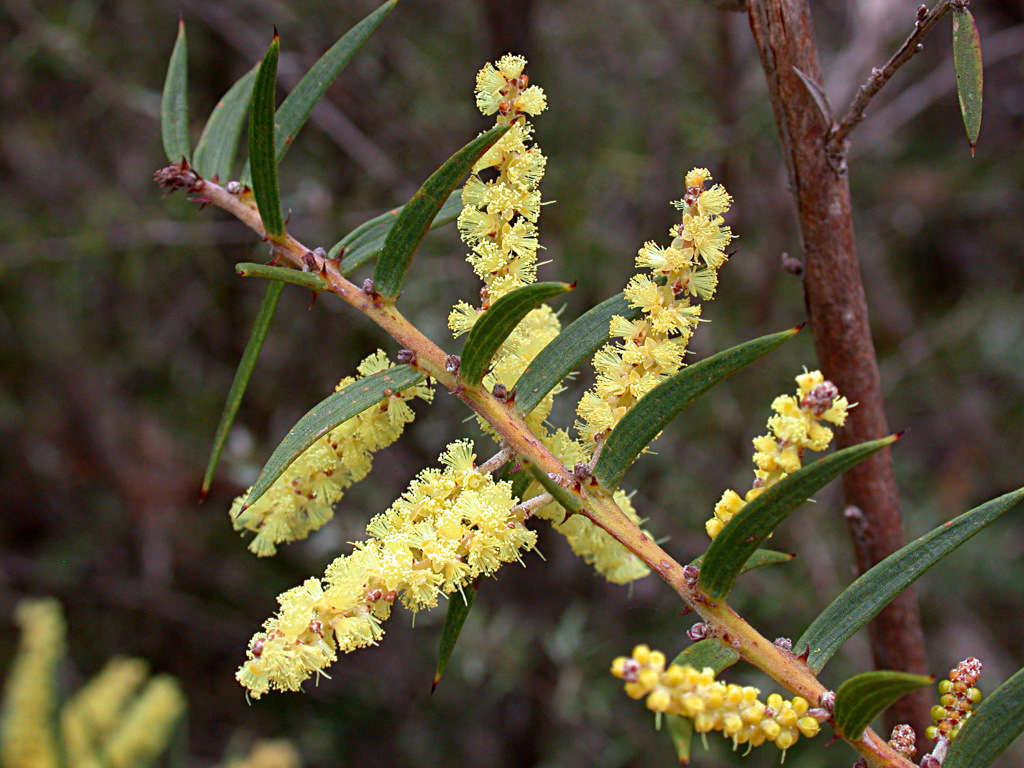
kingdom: Plantae
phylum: Tracheophyta
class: Magnoliopsida
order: Fabales
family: Fabaceae
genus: Acacia
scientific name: Acacia oxycedrus
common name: Spike wattle
